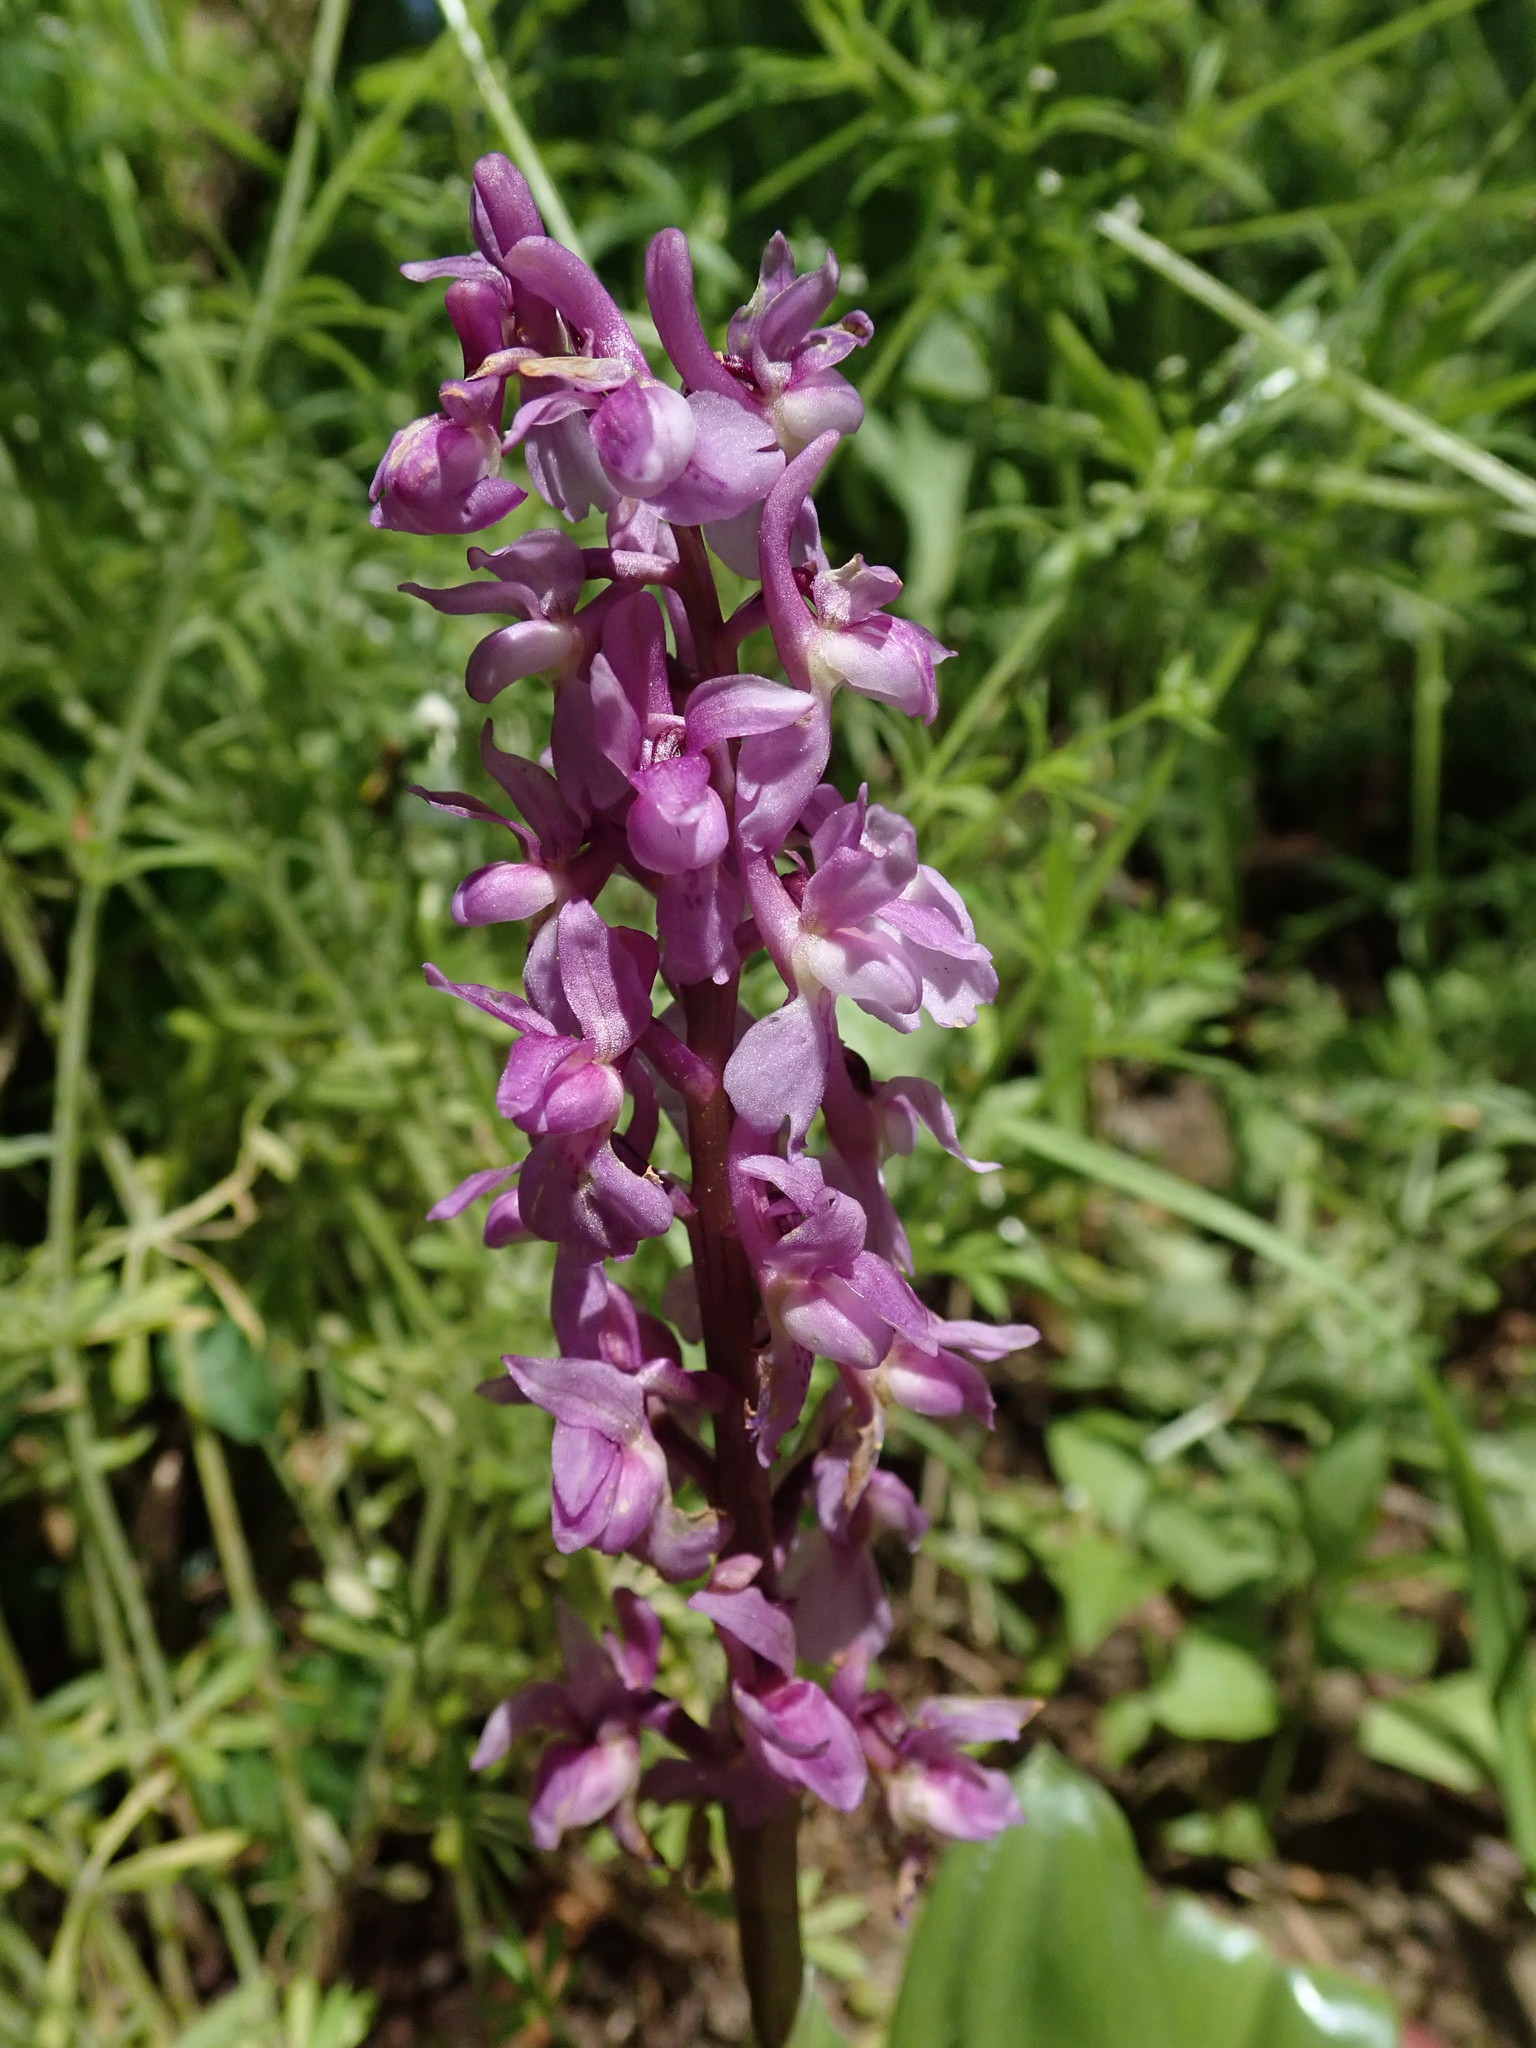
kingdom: Plantae
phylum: Tracheophyta
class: Liliopsida
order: Asparagales
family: Orchidaceae
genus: Orchis
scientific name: Orchis mascula
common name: Early-purple orchid
